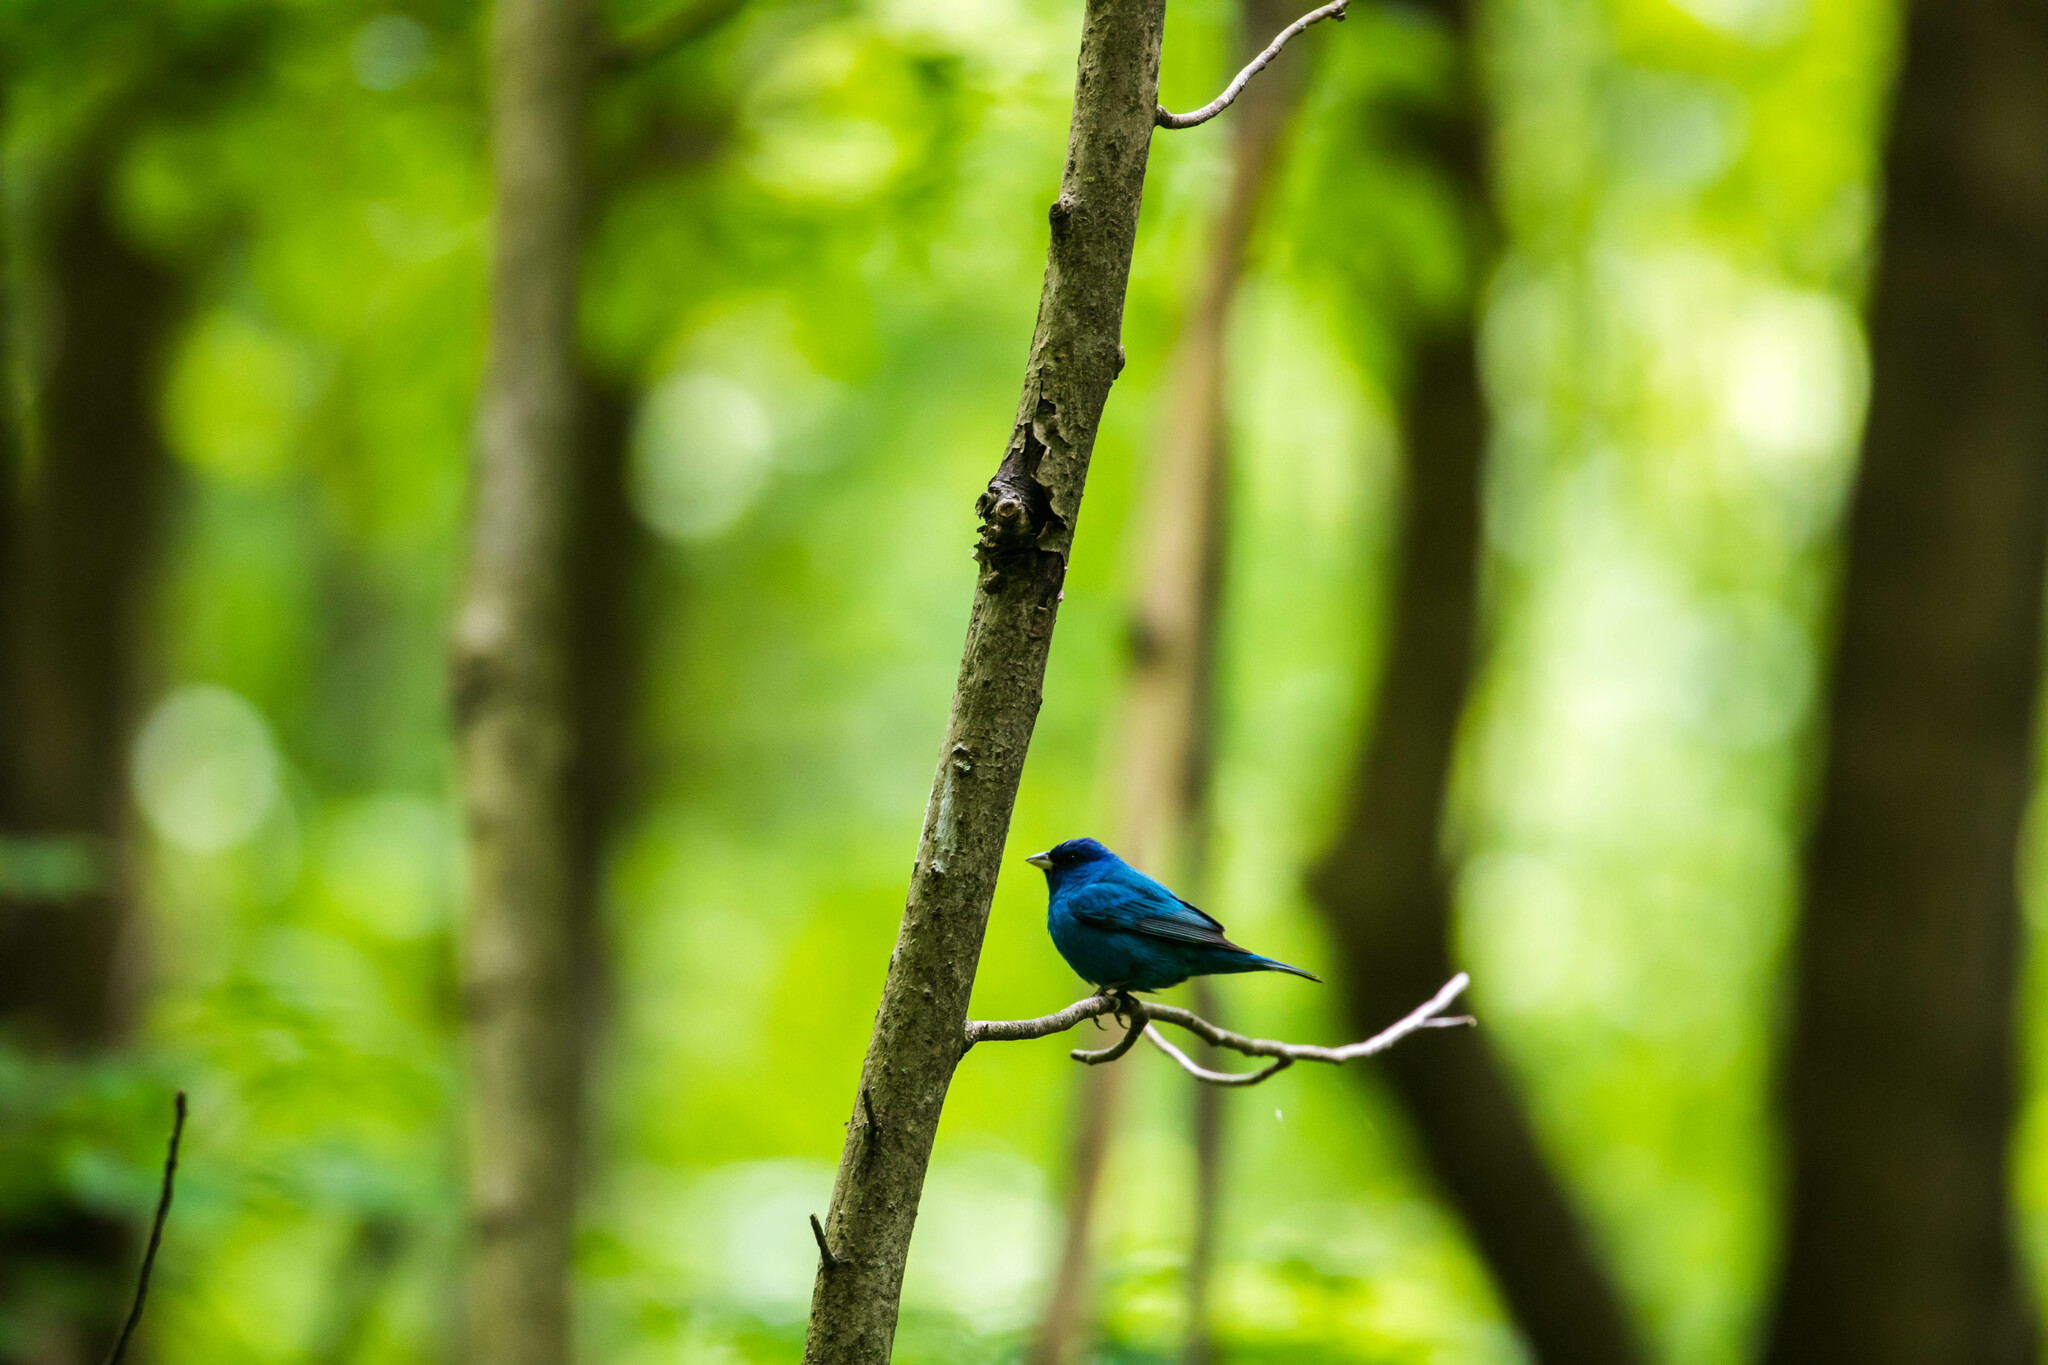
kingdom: Animalia
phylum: Chordata
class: Aves
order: Passeriformes
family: Cardinalidae
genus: Passerina
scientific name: Passerina cyanea
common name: Indigo bunting
